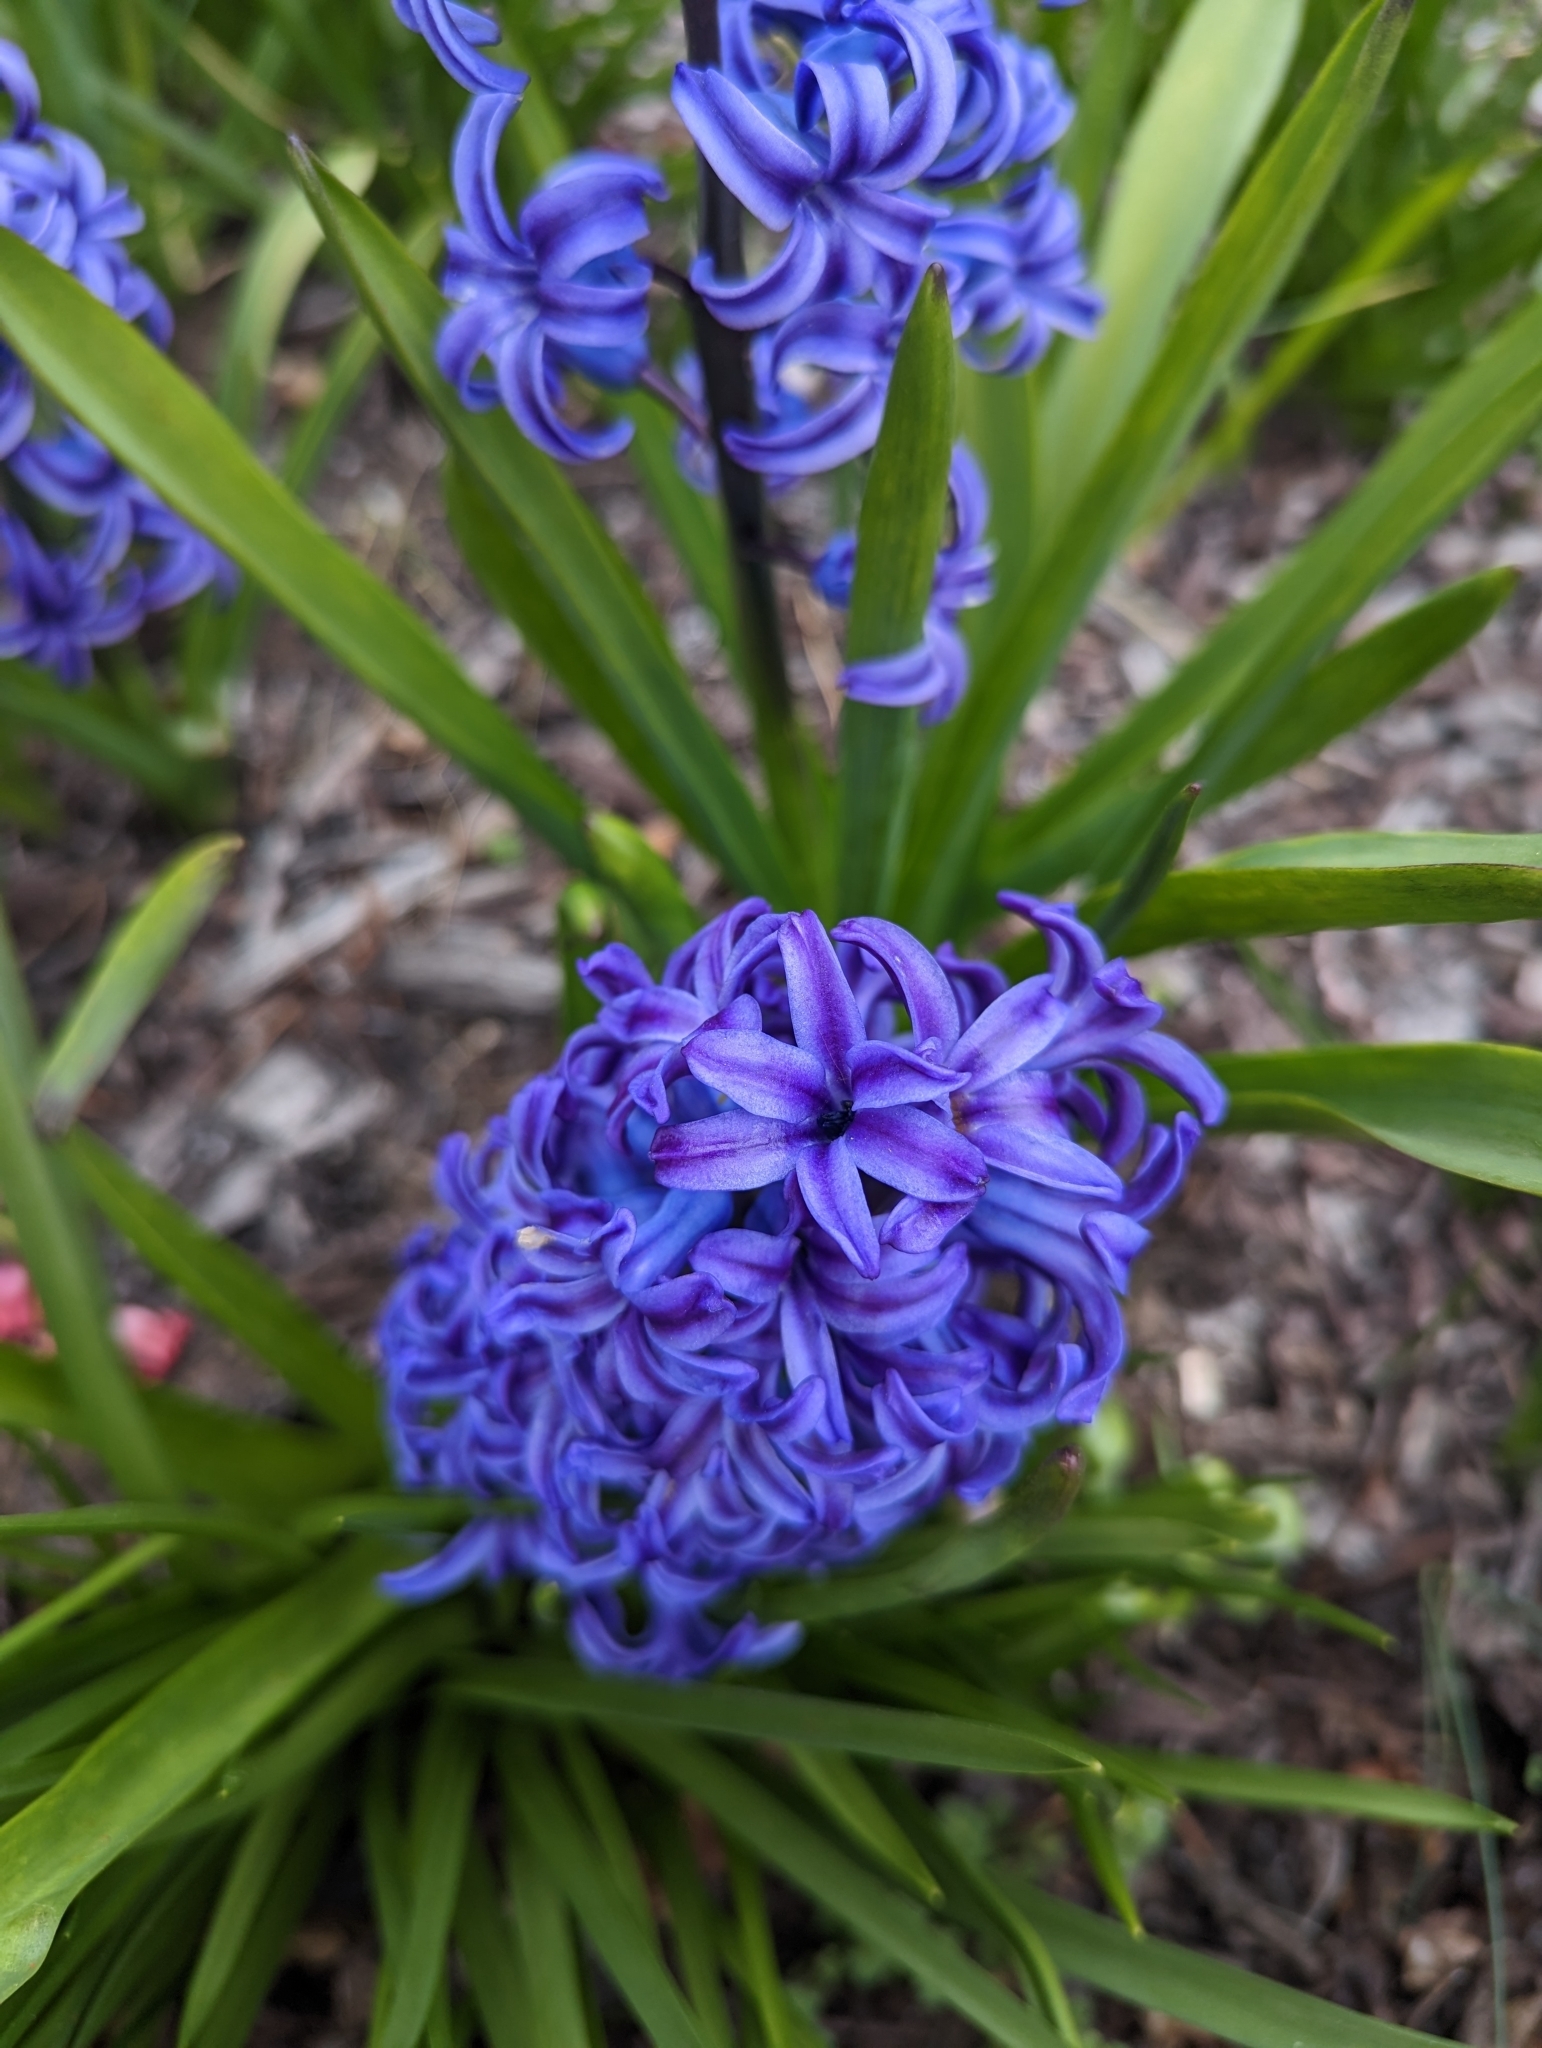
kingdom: Plantae
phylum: Tracheophyta
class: Liliopsida
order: Asparagales
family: Asparagaceae
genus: Hyacinthus
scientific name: Hyacinthus orientalis
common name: Hyacinth
